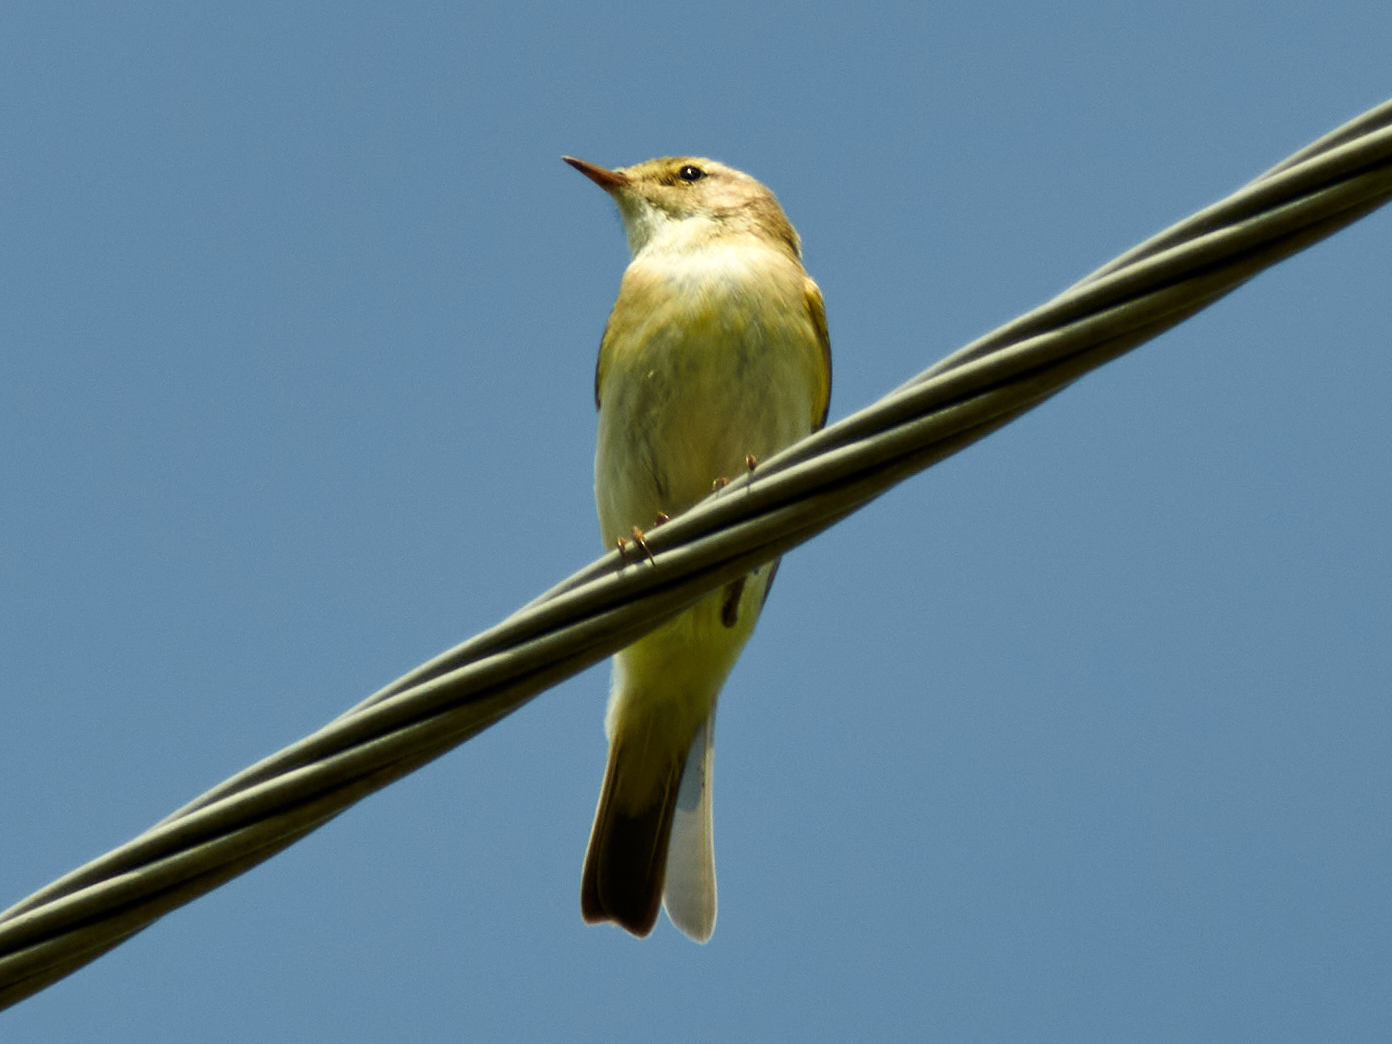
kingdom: Animalia
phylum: Chordata
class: Aves
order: Passeriformes
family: Phylloscopidae
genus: Phylloscopus
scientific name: Phylloscopus trochilus
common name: Willow warbler
